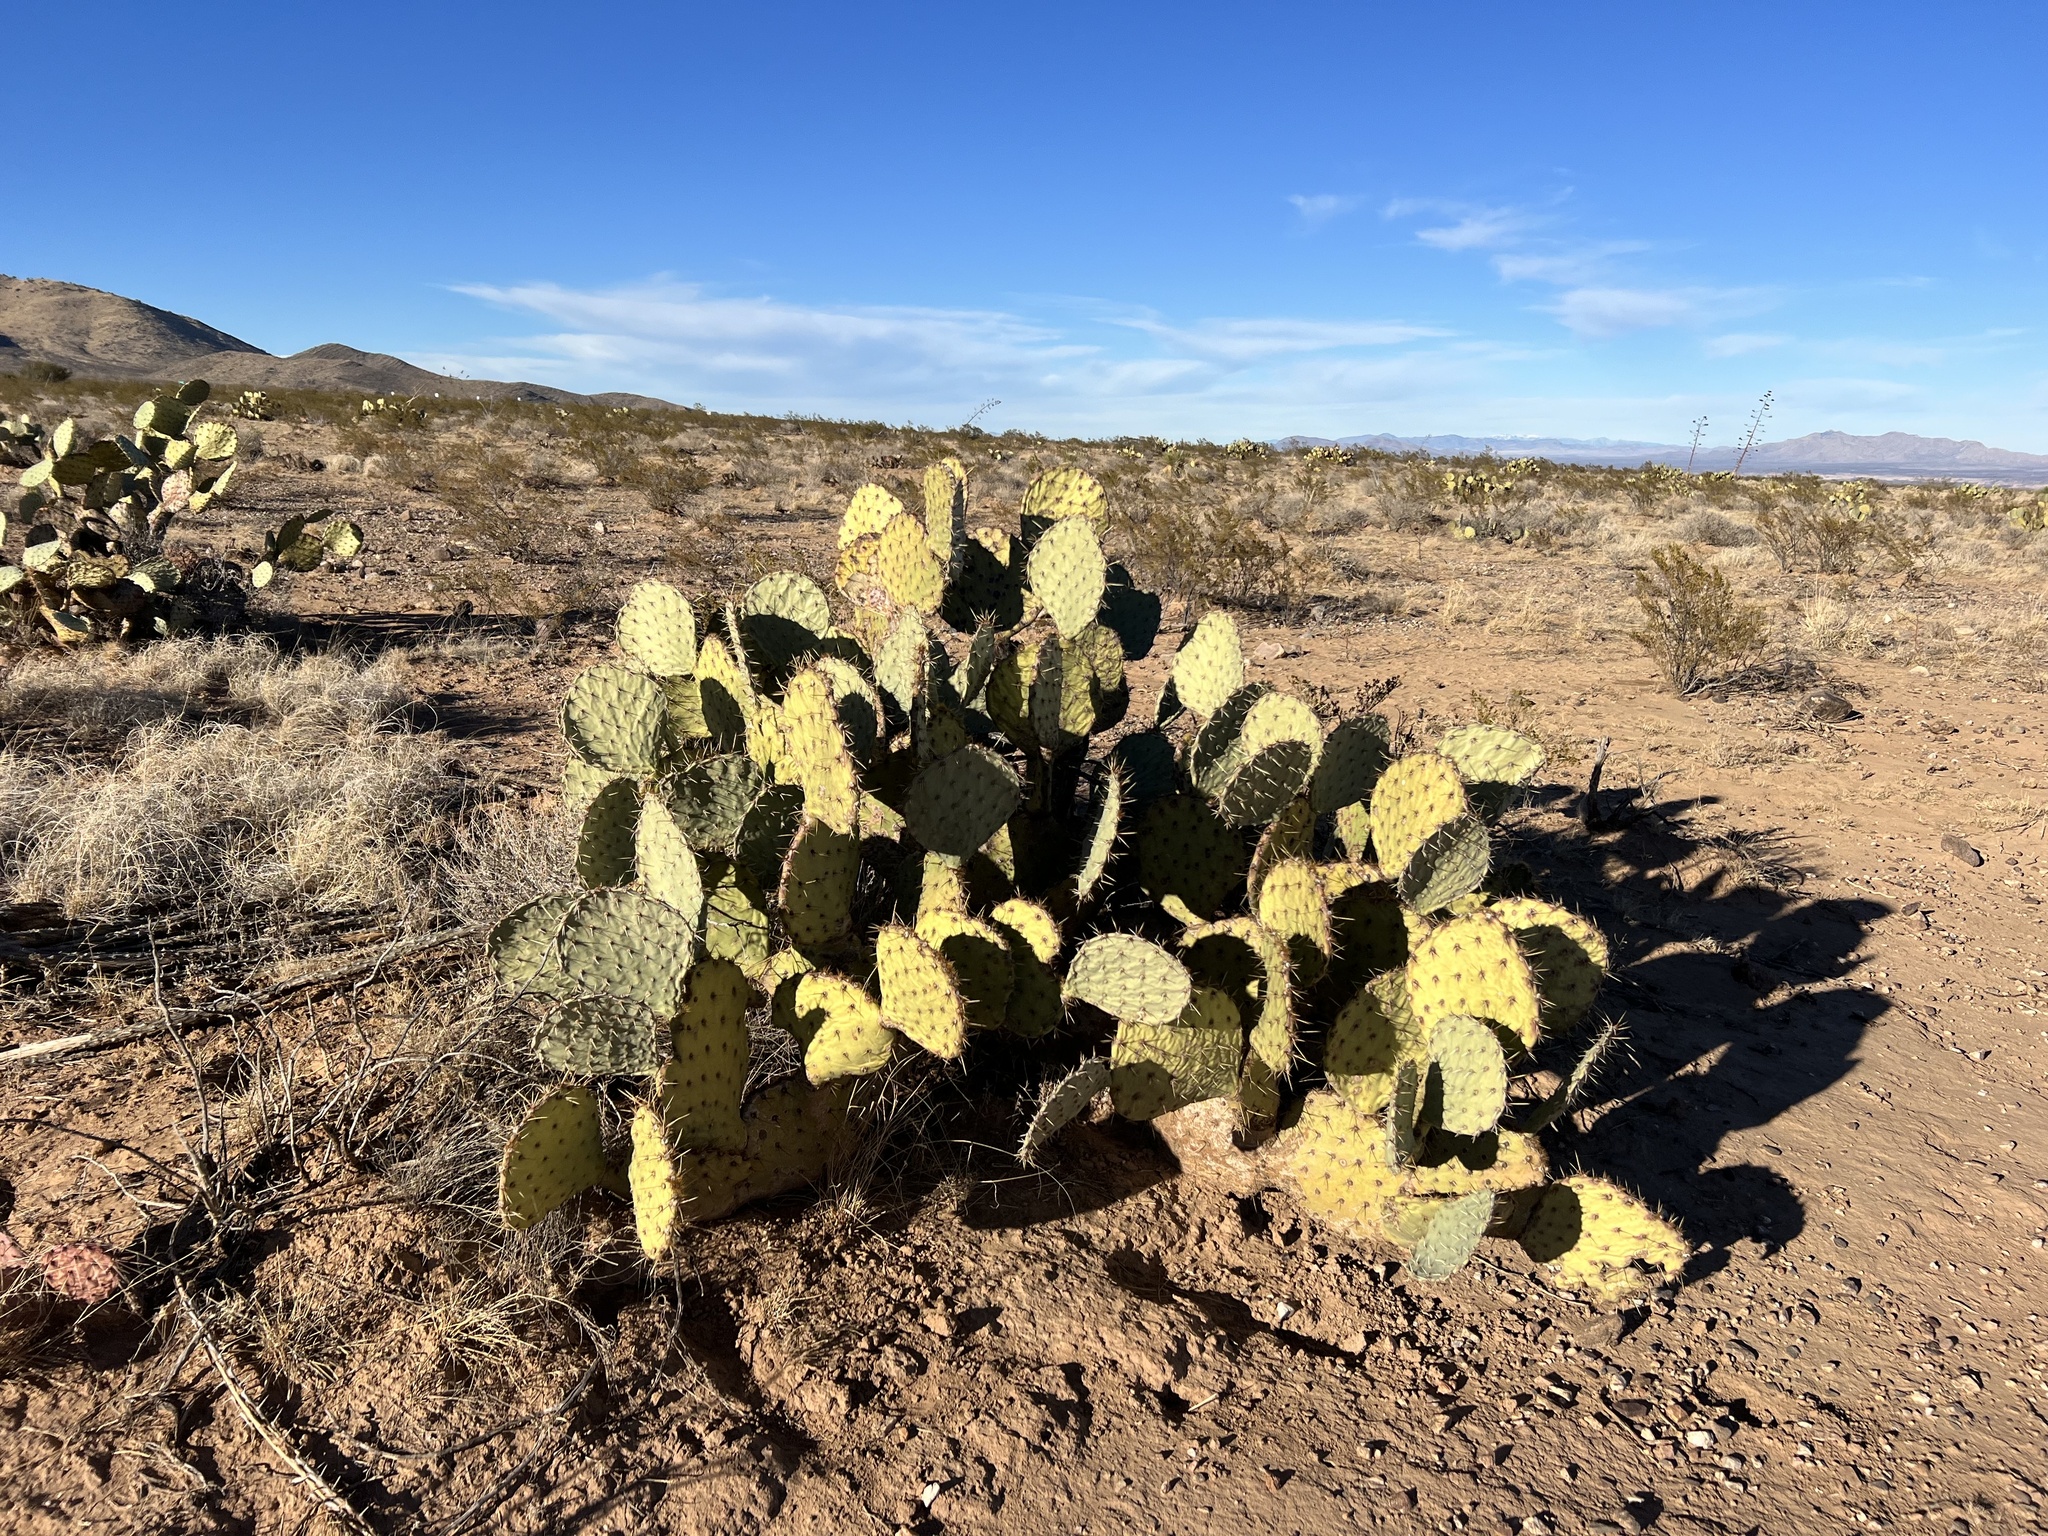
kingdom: Plantae
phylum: Tracheophyta
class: Magnoliopsida
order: Caryophyllales
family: Cactaceae
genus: Opuntia
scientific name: Opuntia engelmannii
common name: Cactus-apple
